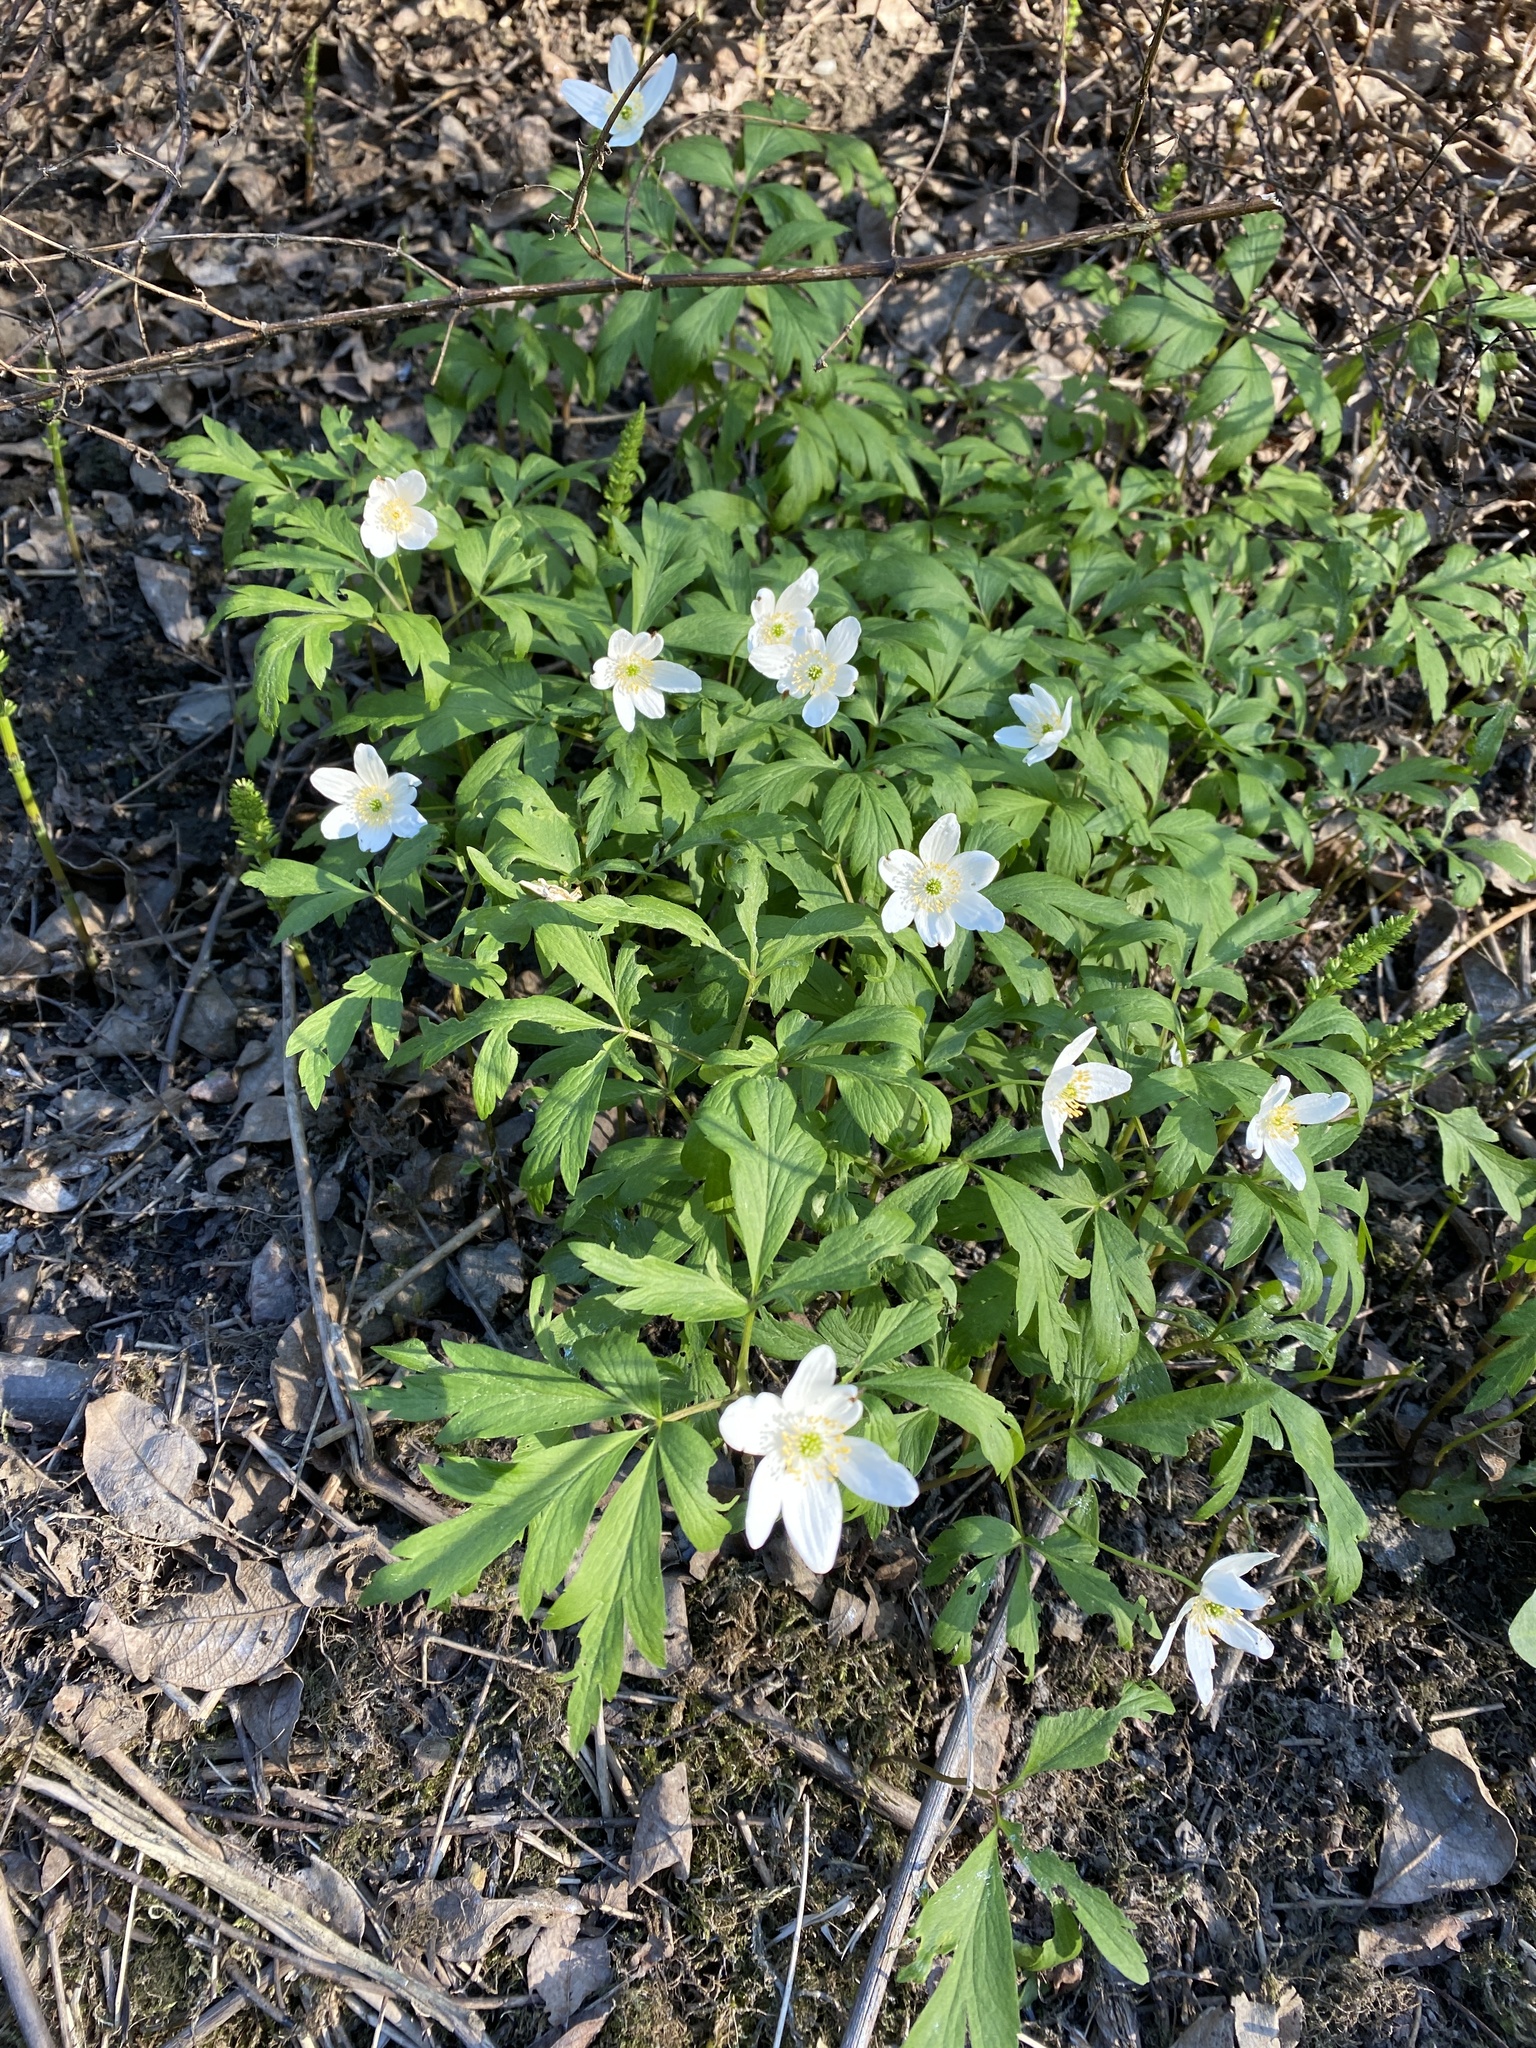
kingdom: Plantae
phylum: Tracheophyta
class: Magnoliopsida
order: Ranunculales
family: Ranunculaceae
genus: Anemone
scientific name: Anemone nemorosa
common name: Wood anemone
